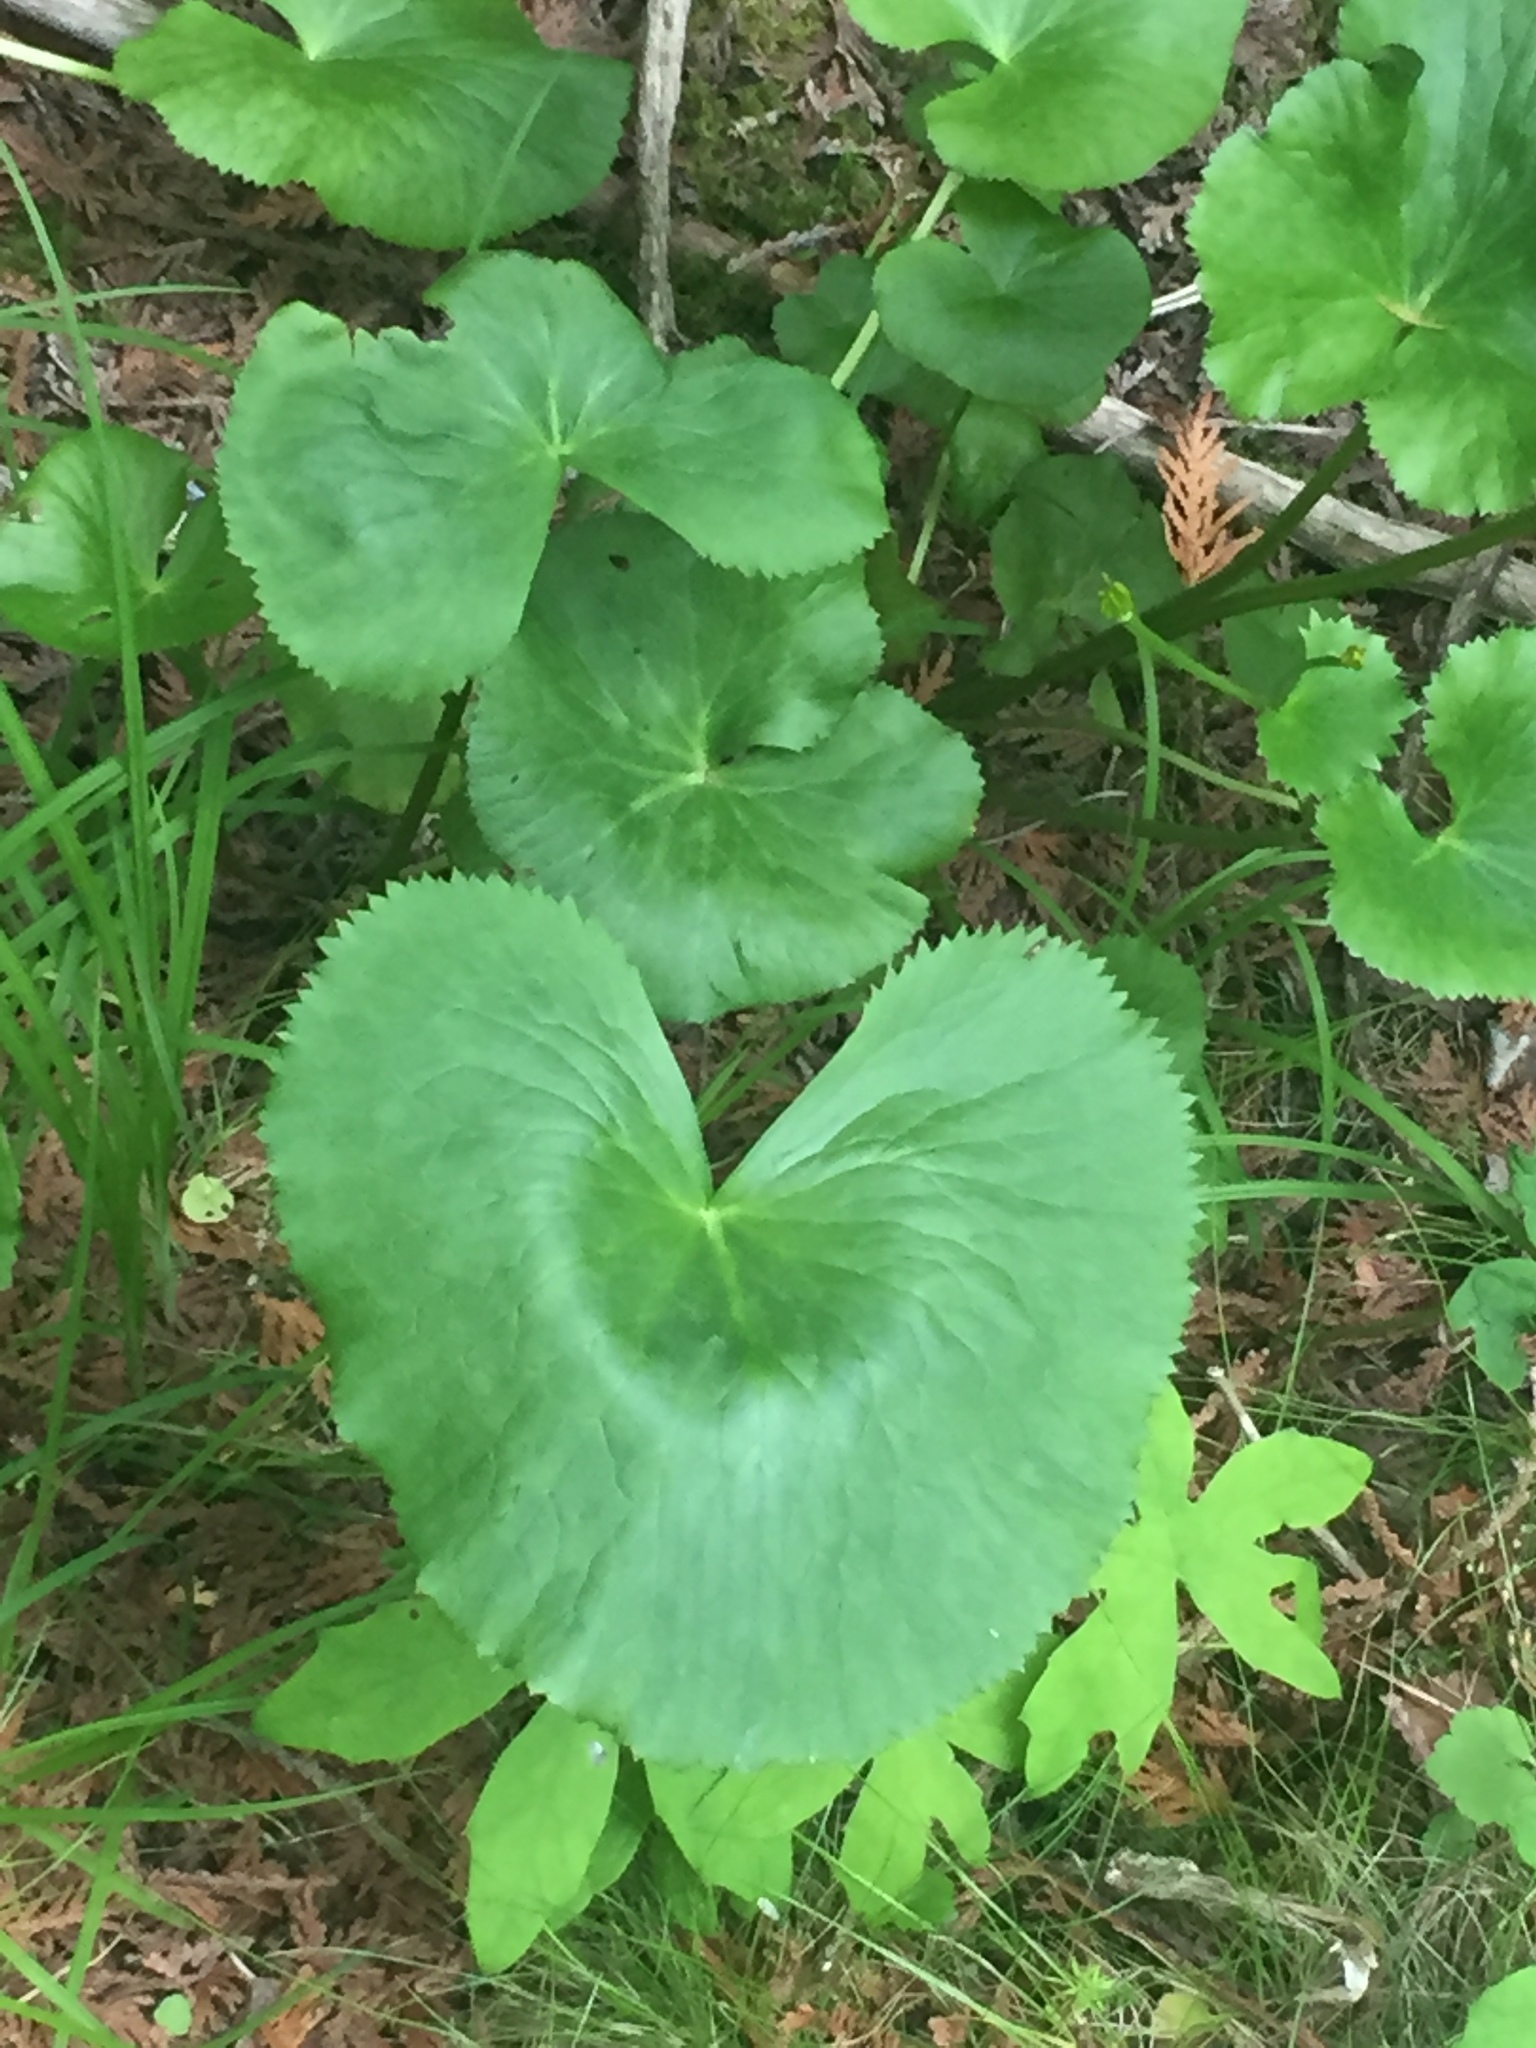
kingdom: Plantae
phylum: Tracheophyta
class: Magnoliopsida
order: Ranunculales
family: Ranunculaceae
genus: Caltha
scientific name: Caltha palustris
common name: Marsh marigold
